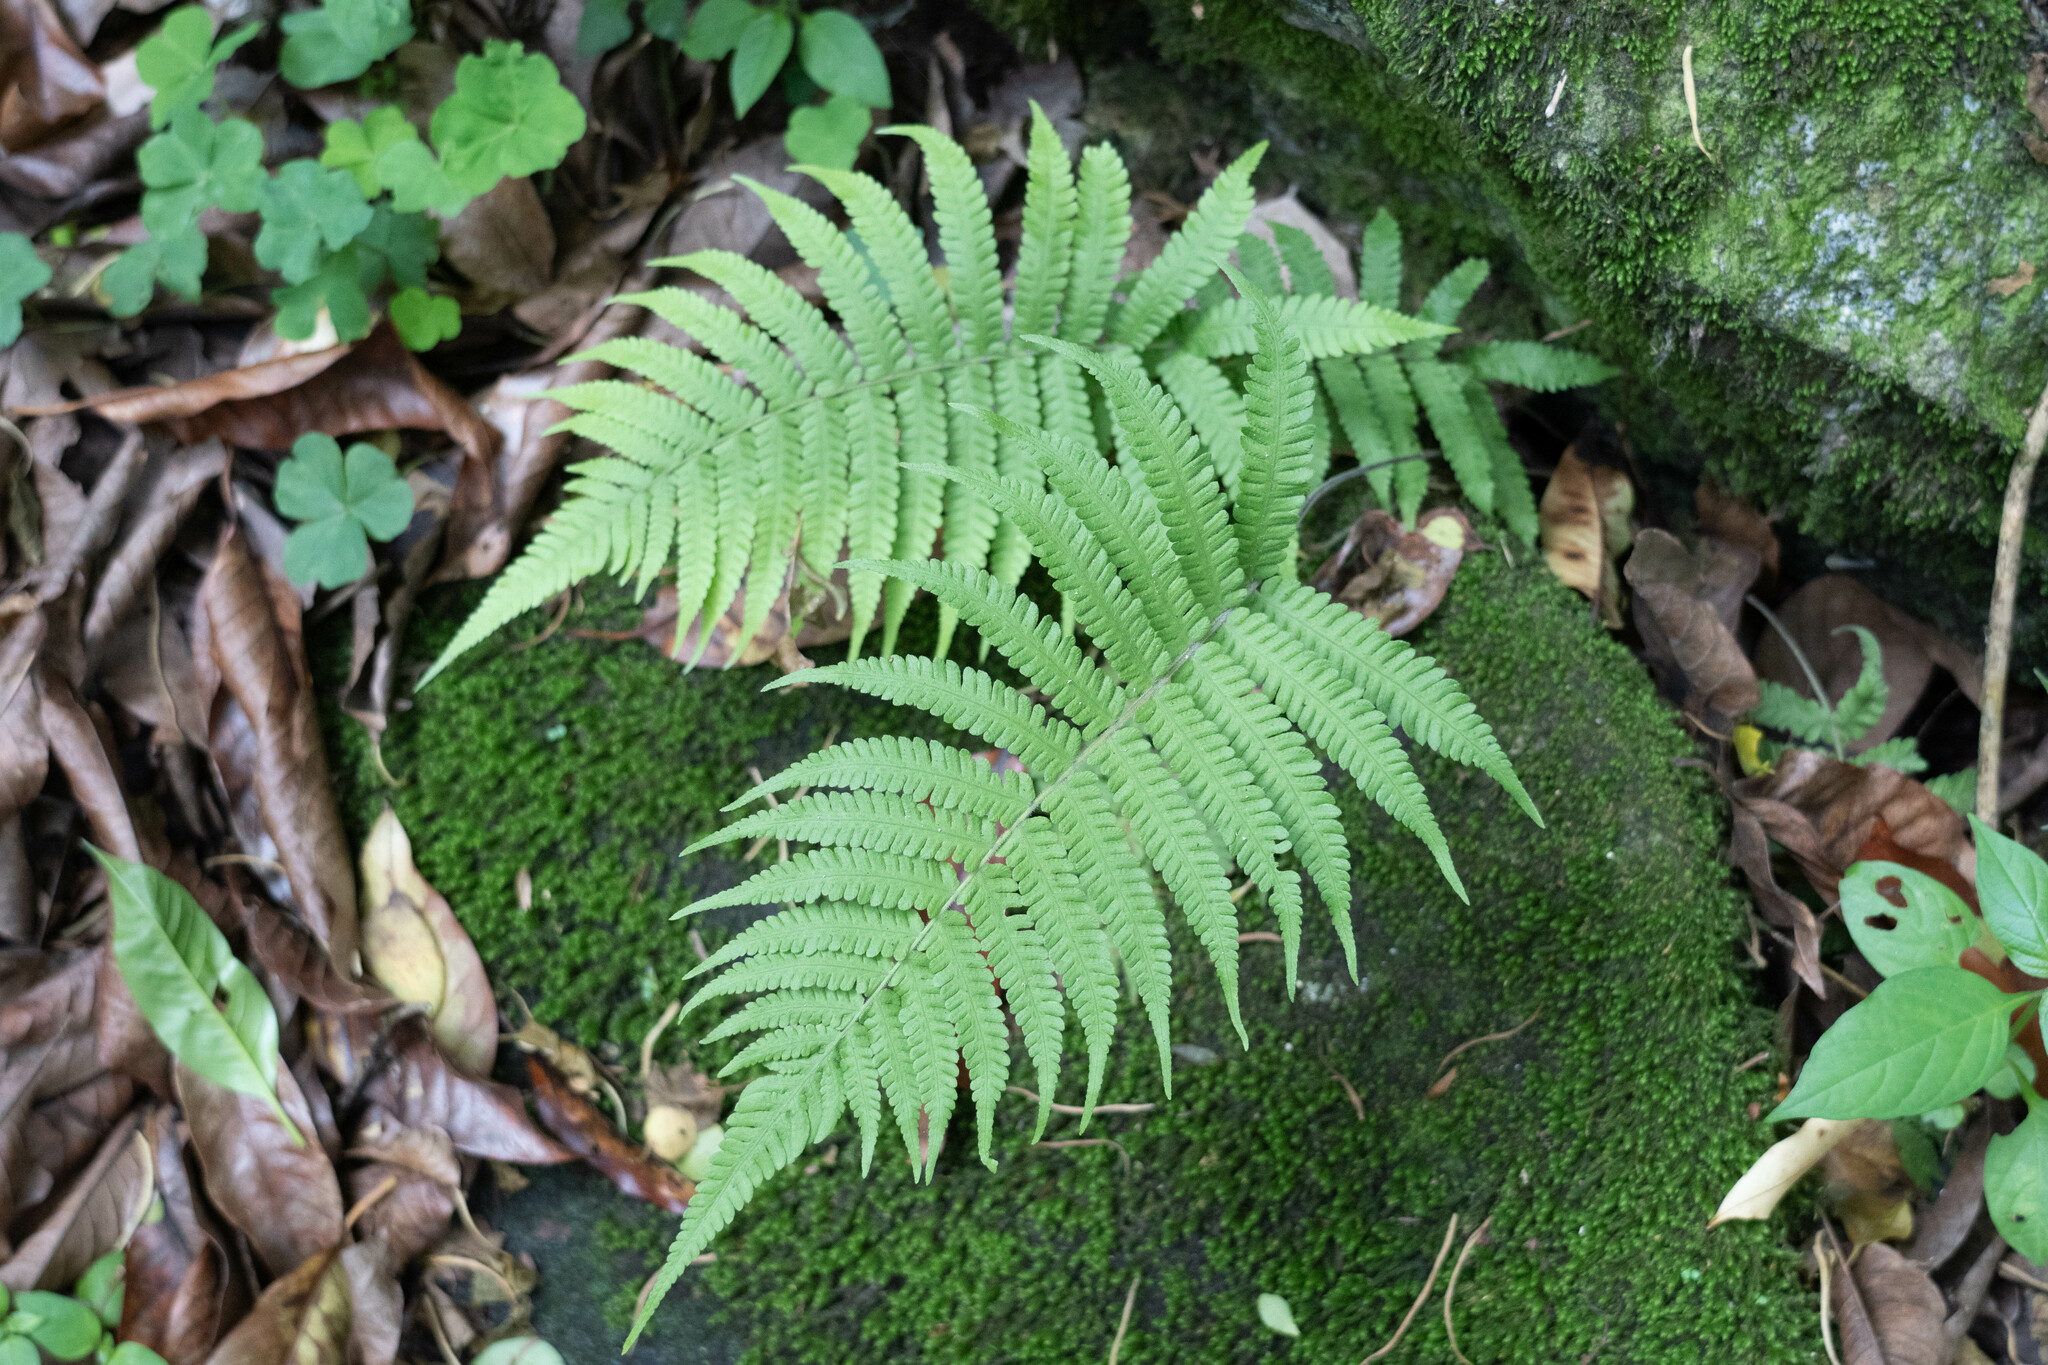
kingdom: Plantae
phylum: Tracheophyta
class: Polypodiopsida
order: Polypodiales
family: Thelypteridaceae
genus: Christella
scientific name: Christella parasitica
